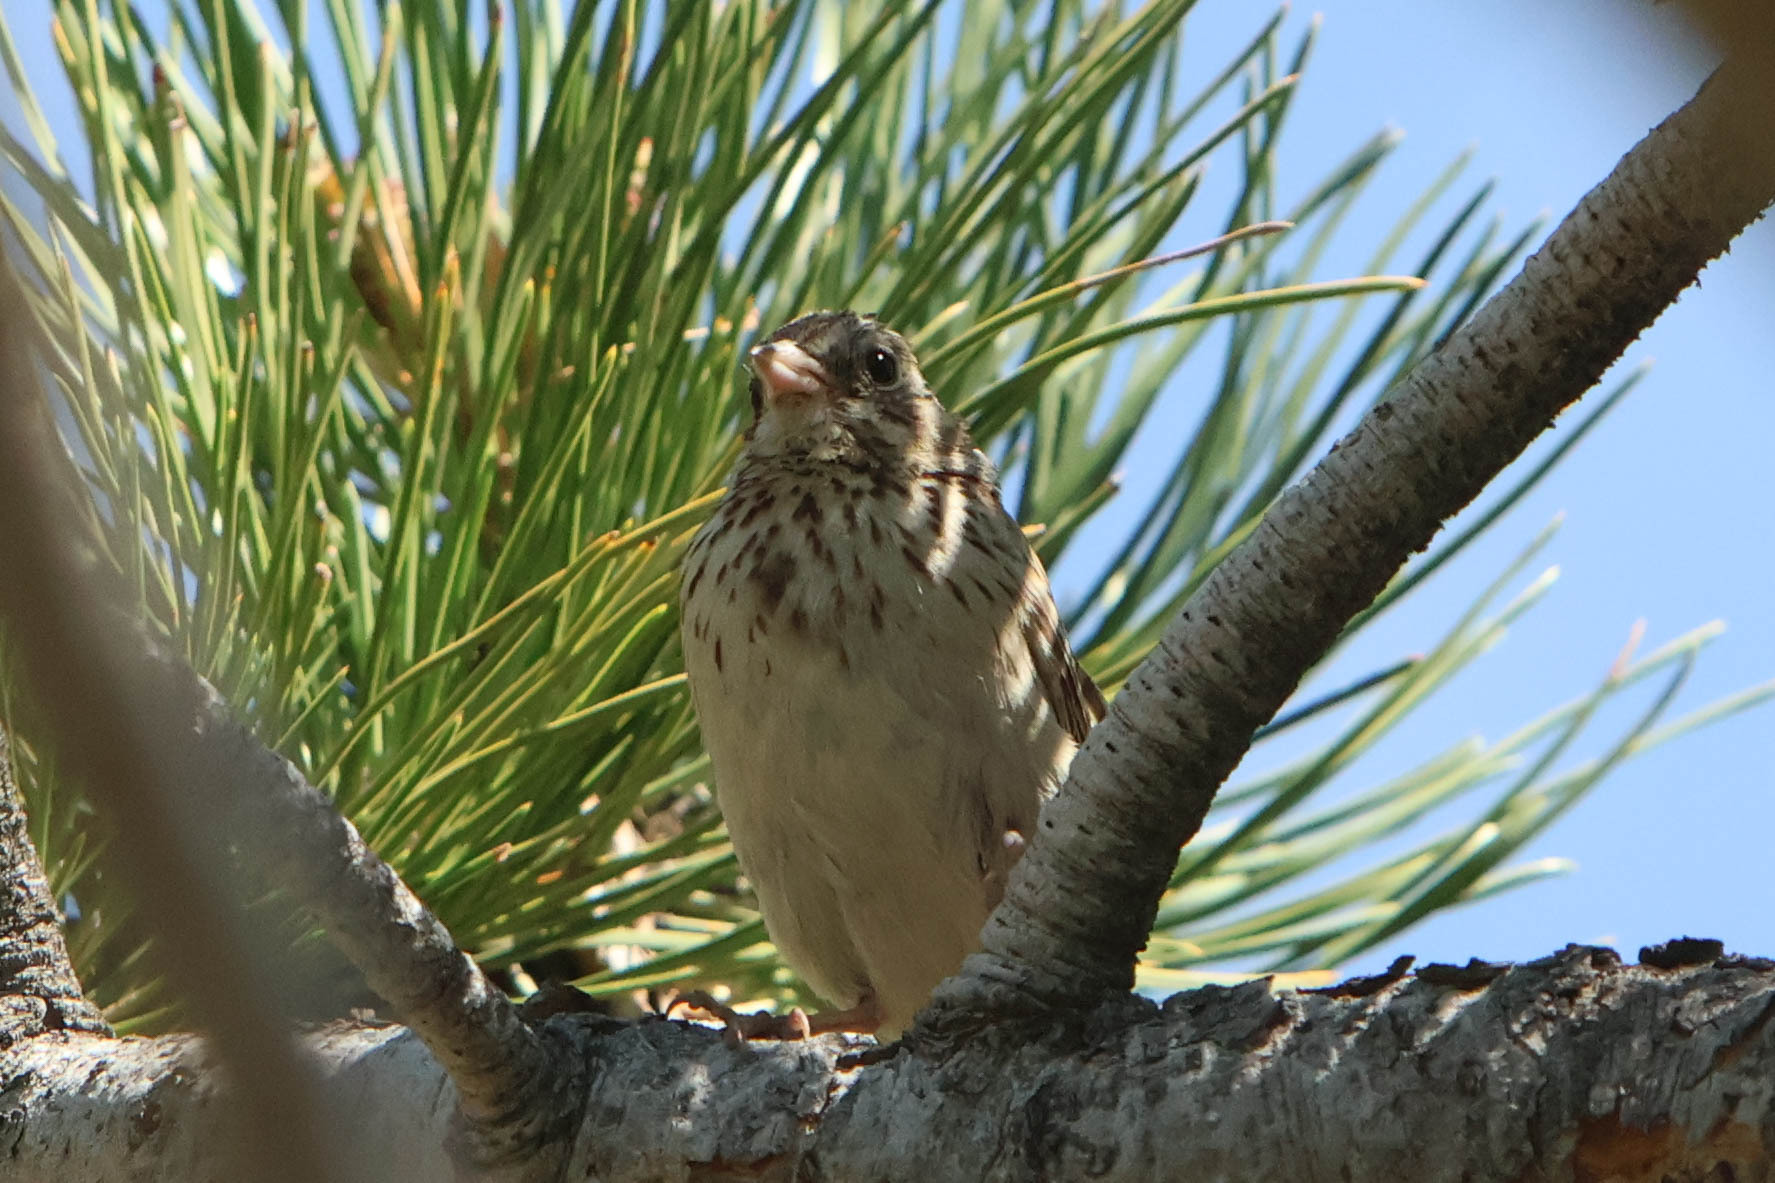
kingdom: Animalia
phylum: Chordata
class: Aves
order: Passeriformes
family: Passerellidae
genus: Pooecetes
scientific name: Pooecetes gramineus
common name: Vesper sparrow
